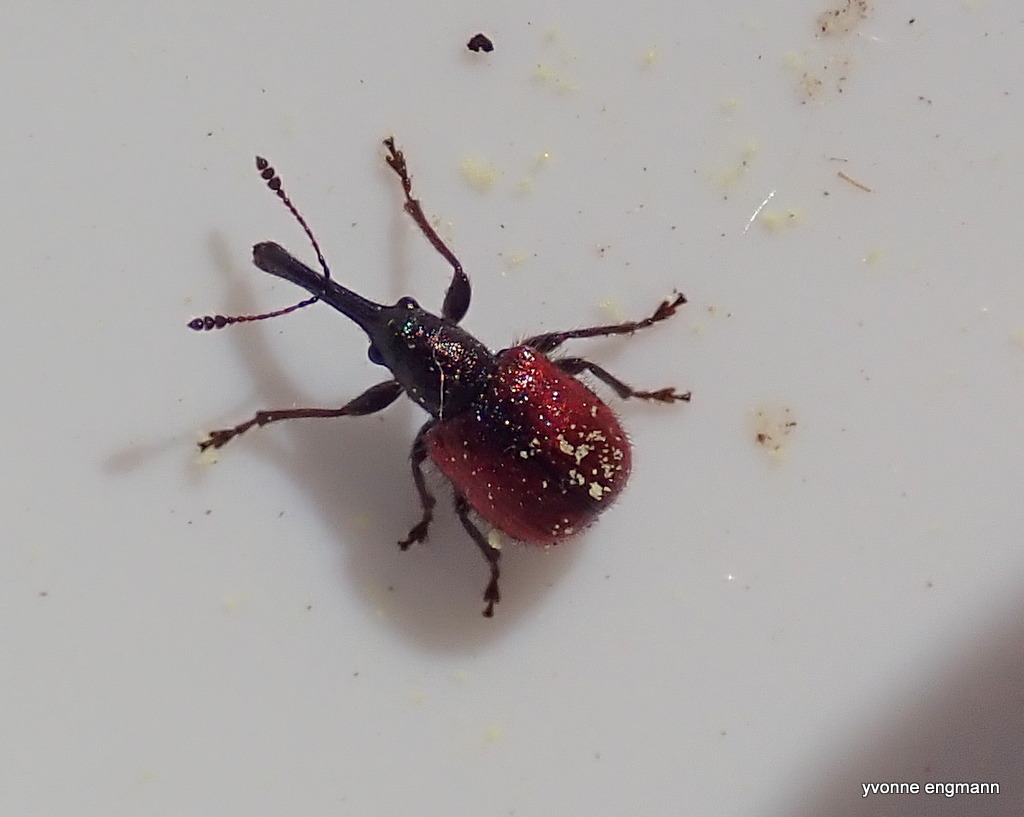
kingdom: Animalia
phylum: Arthropoda
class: Insecta
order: Coleoptera
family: Rhynchitidae
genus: Tatianaerhynchites
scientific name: Tatianaerhynchites aequatus
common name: Apple fruit rhynchites
